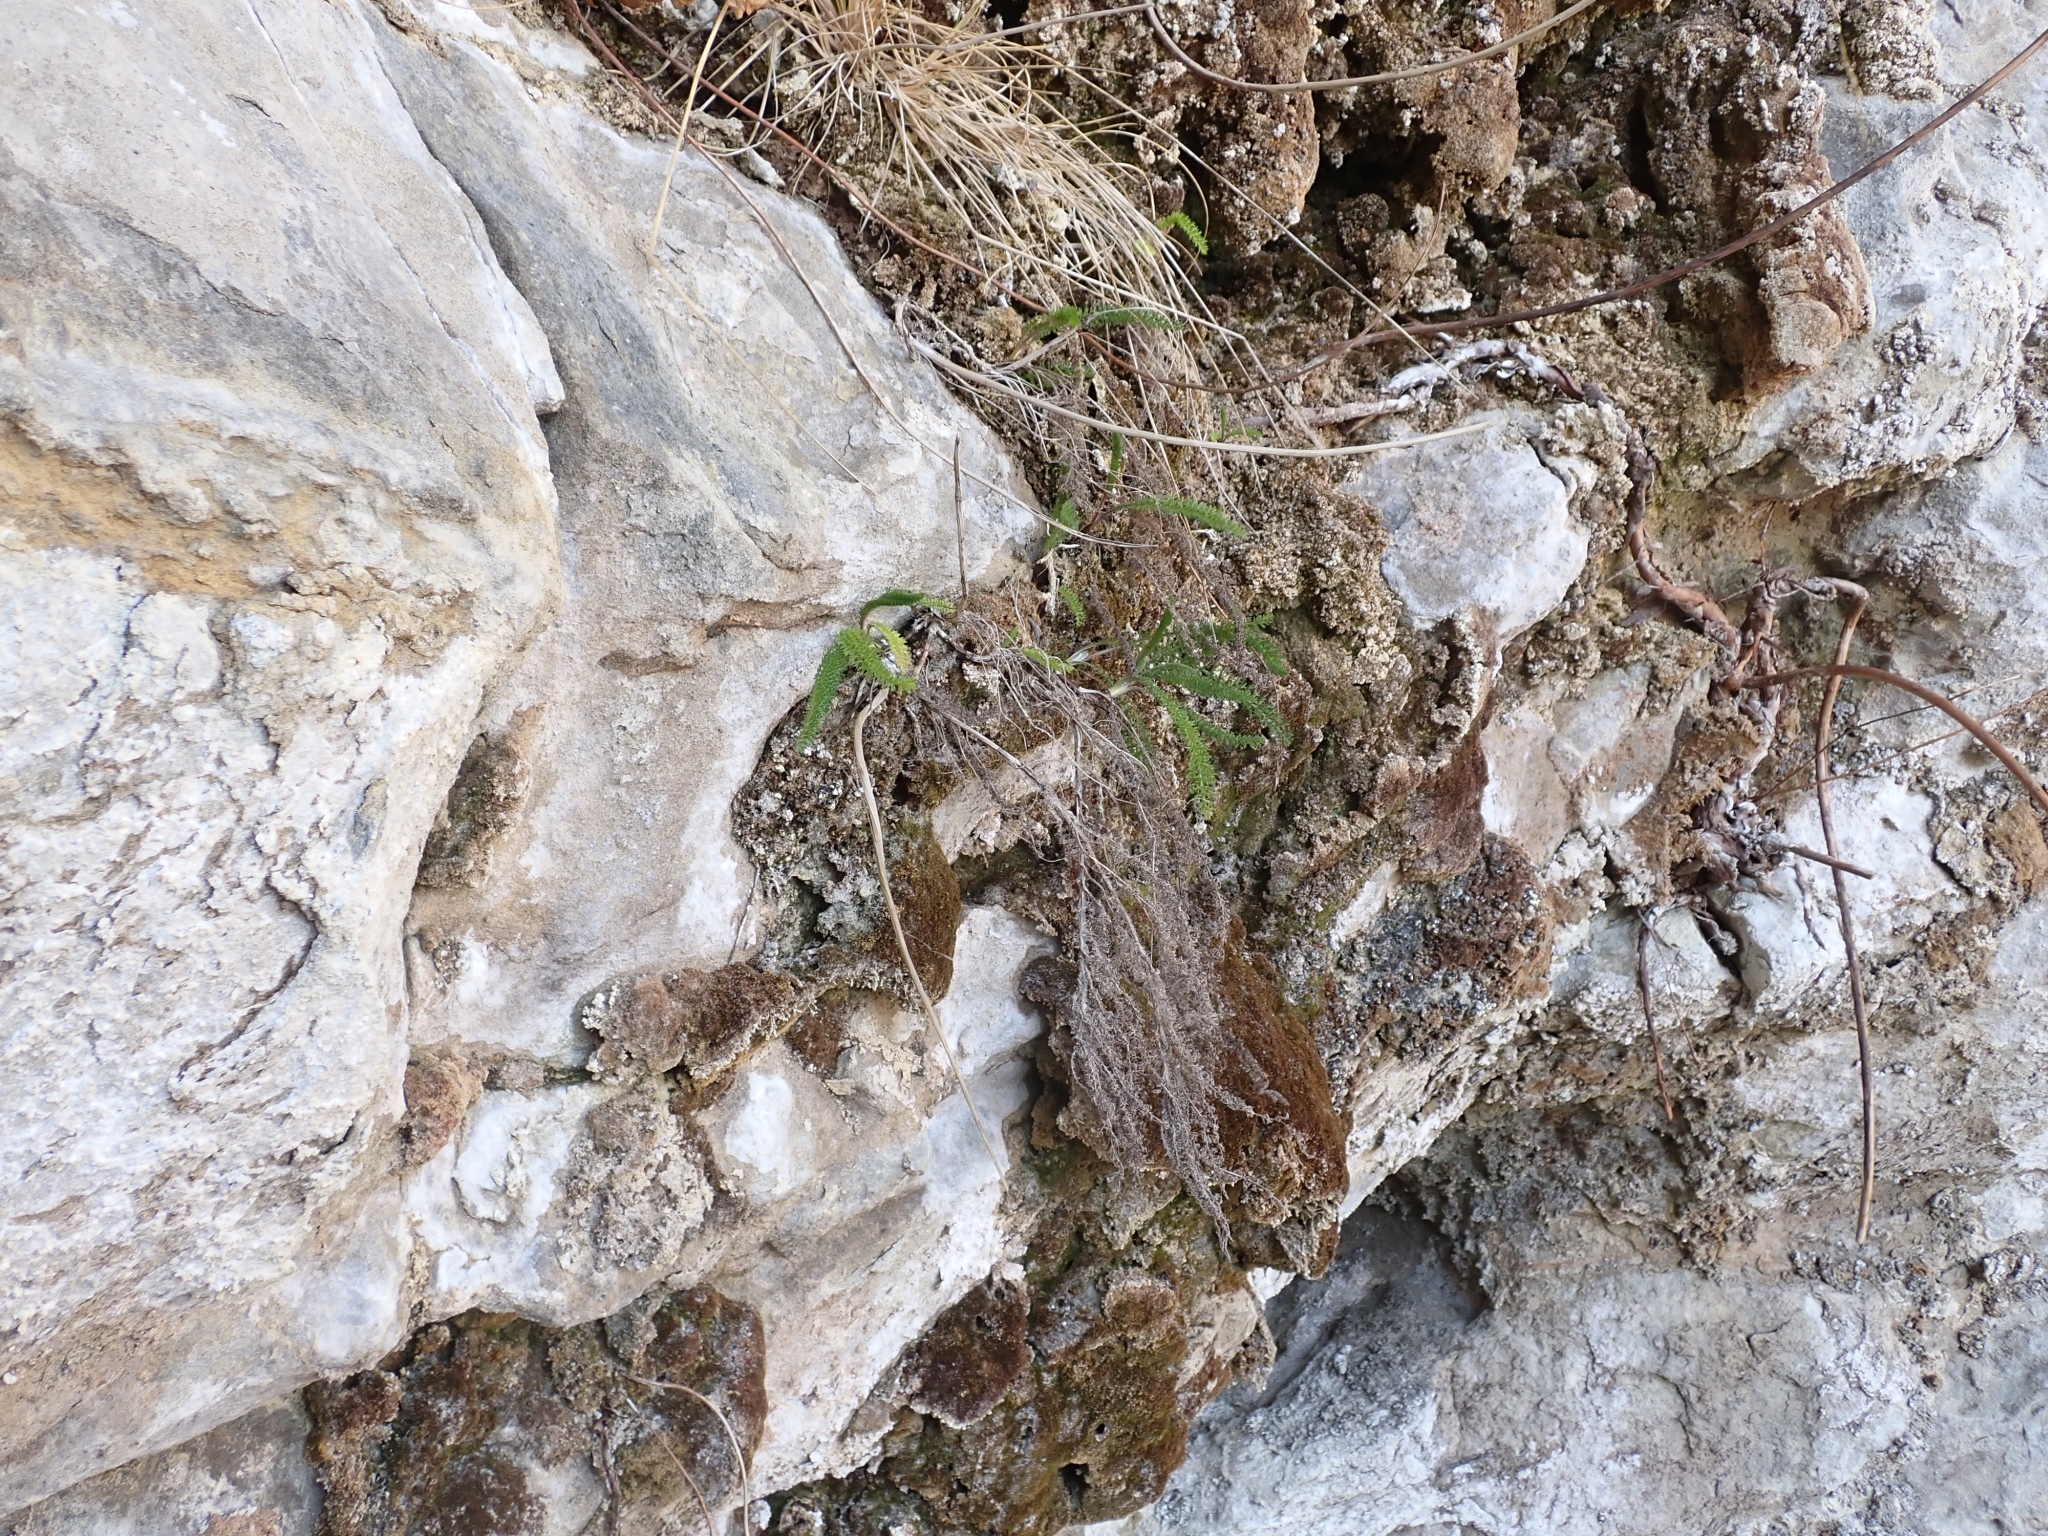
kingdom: Plantae
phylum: Tracheophyta
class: Magnoliopsida
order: Asterales
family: Asteraceae
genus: Achillea
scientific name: Achillea millefolium
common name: Yarrow
